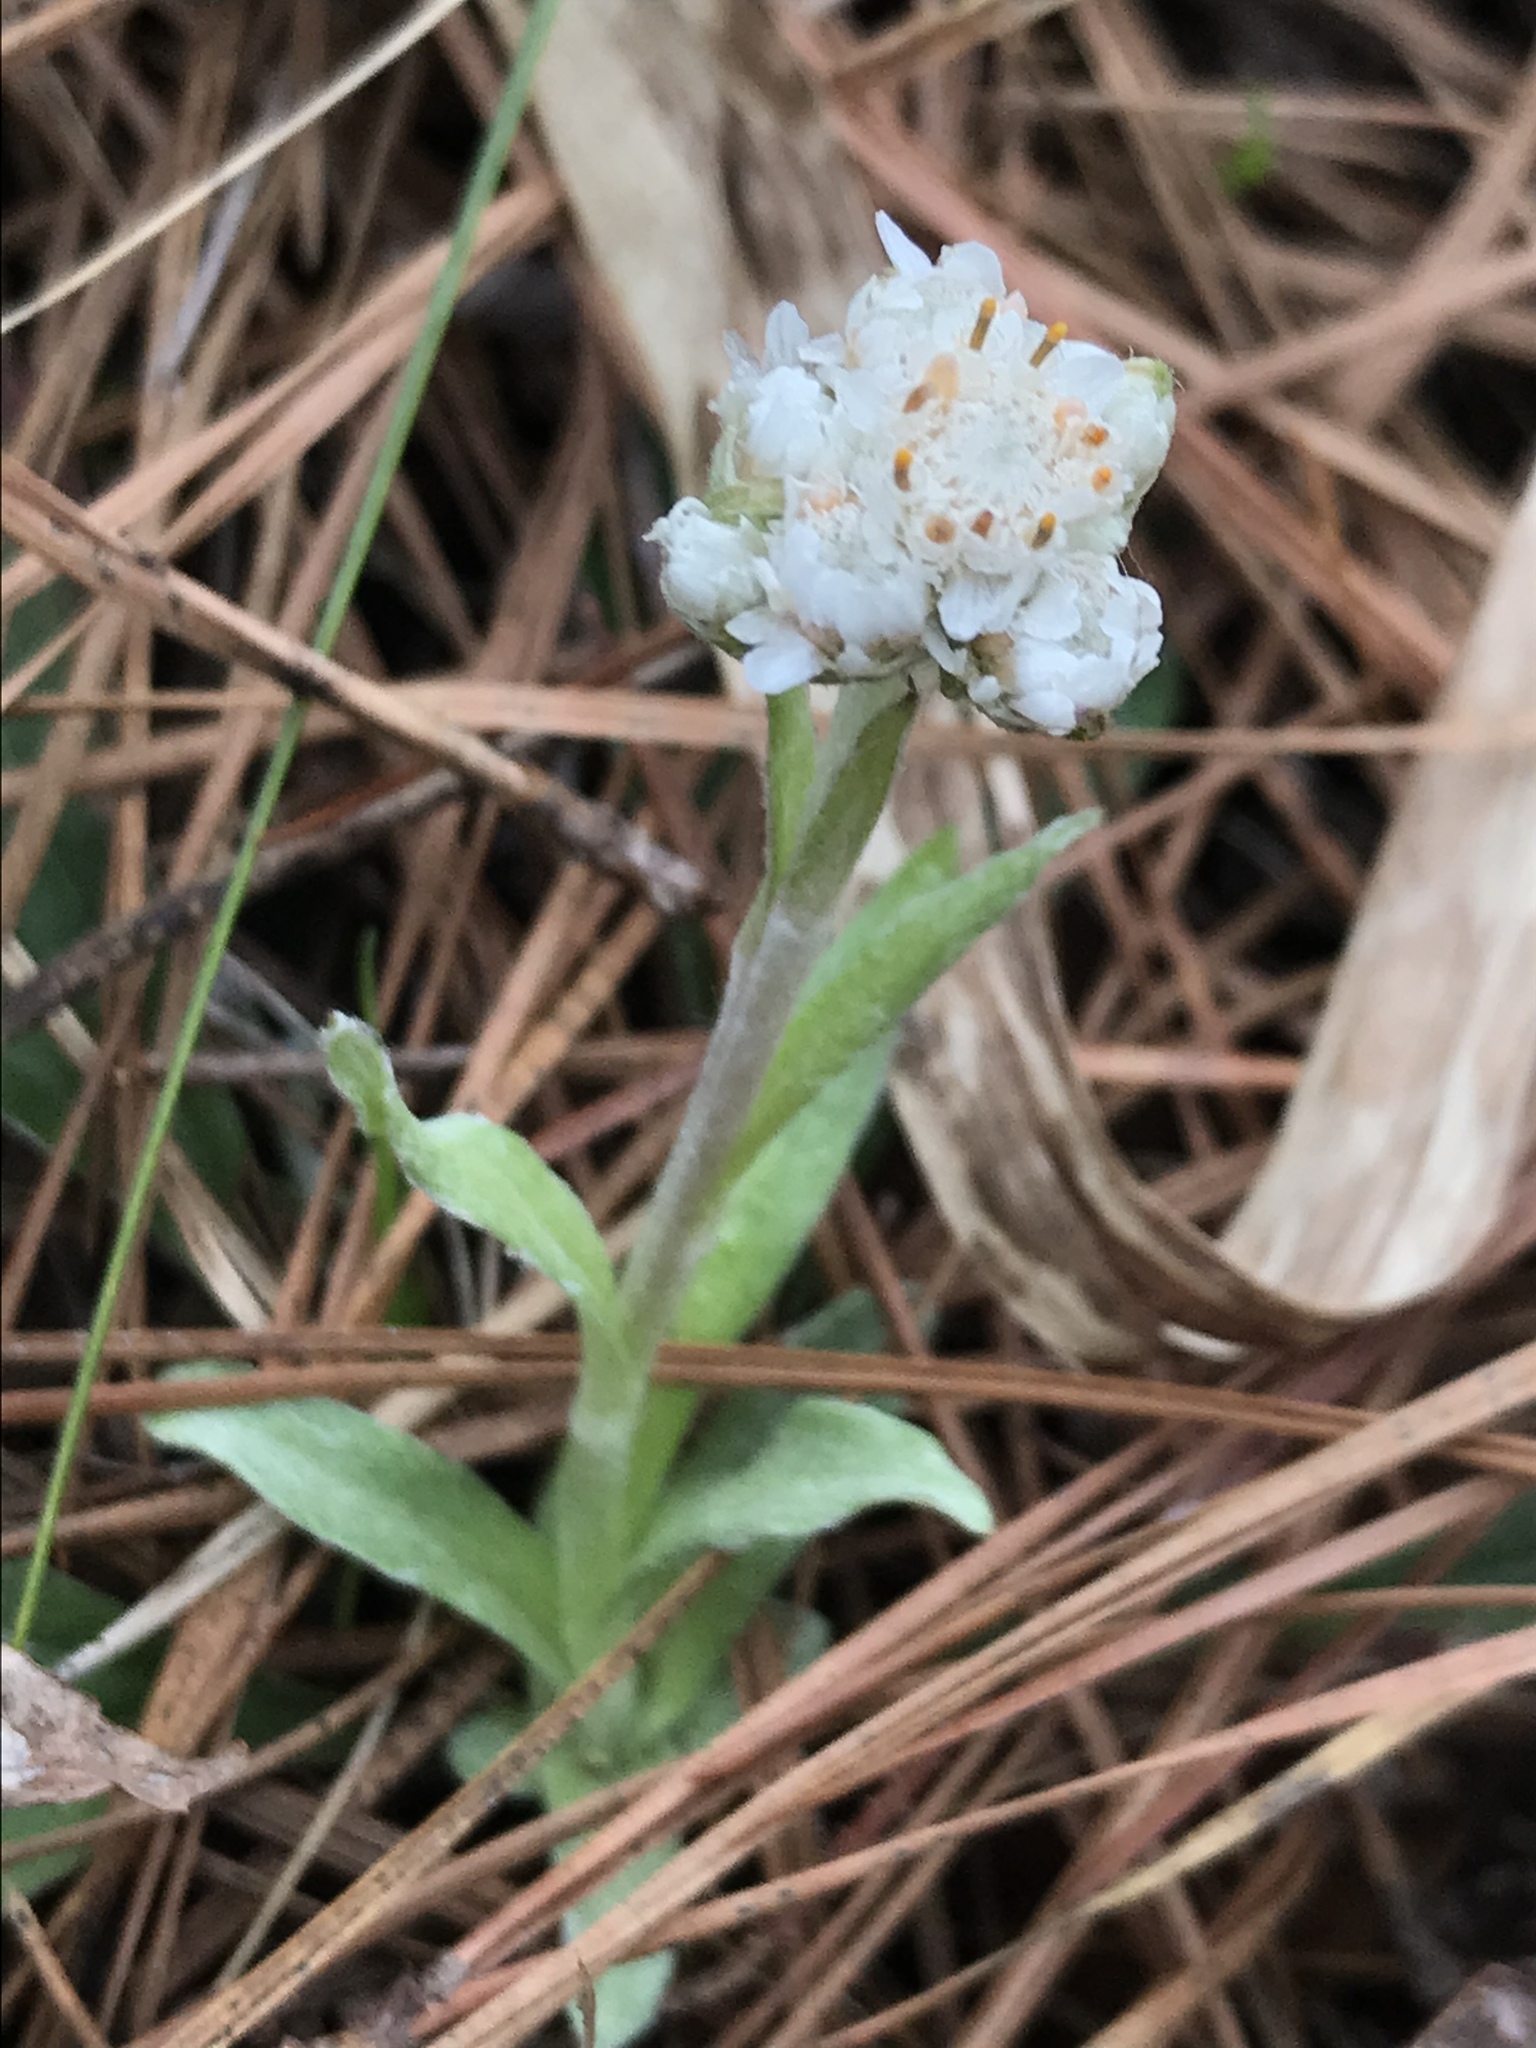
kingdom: Plantae
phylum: Tracheophyta
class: Magnoliopsida
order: Asterales
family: Asteraceae
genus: Antennaria
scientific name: Antennaria parlinii
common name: Parlin's pussytoes
